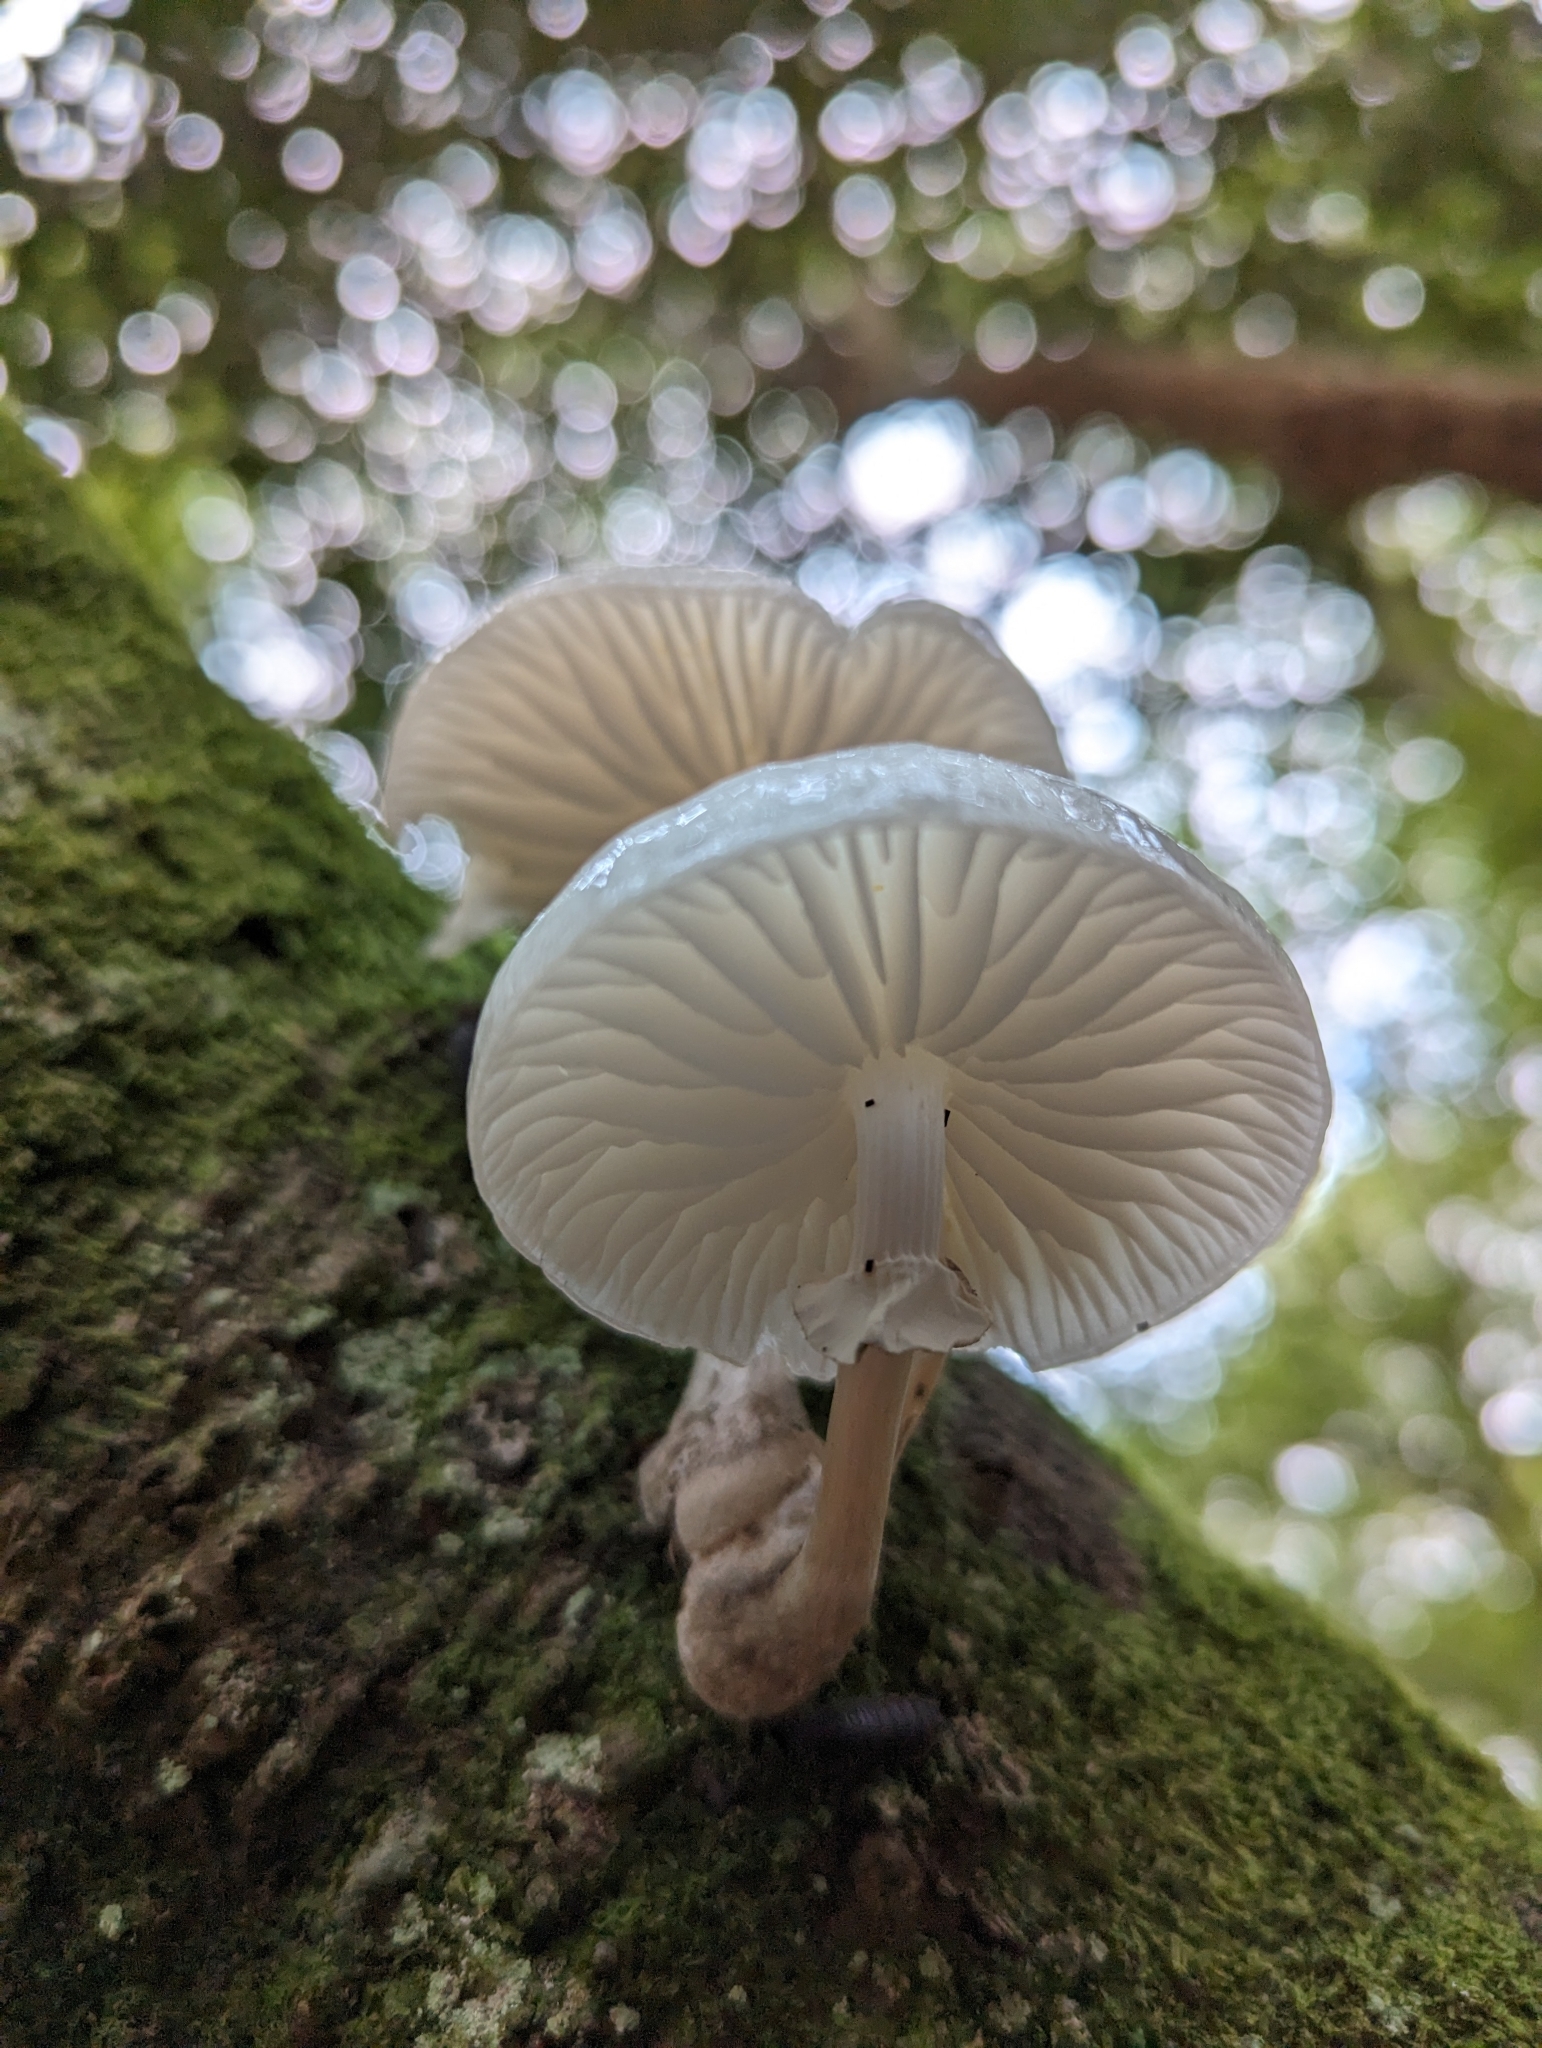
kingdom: Fungi
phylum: Basidiomycota
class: Agaricomycetes
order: Agaricales
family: Physalacriaceae
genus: Mucidula
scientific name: Mucidula mucida
